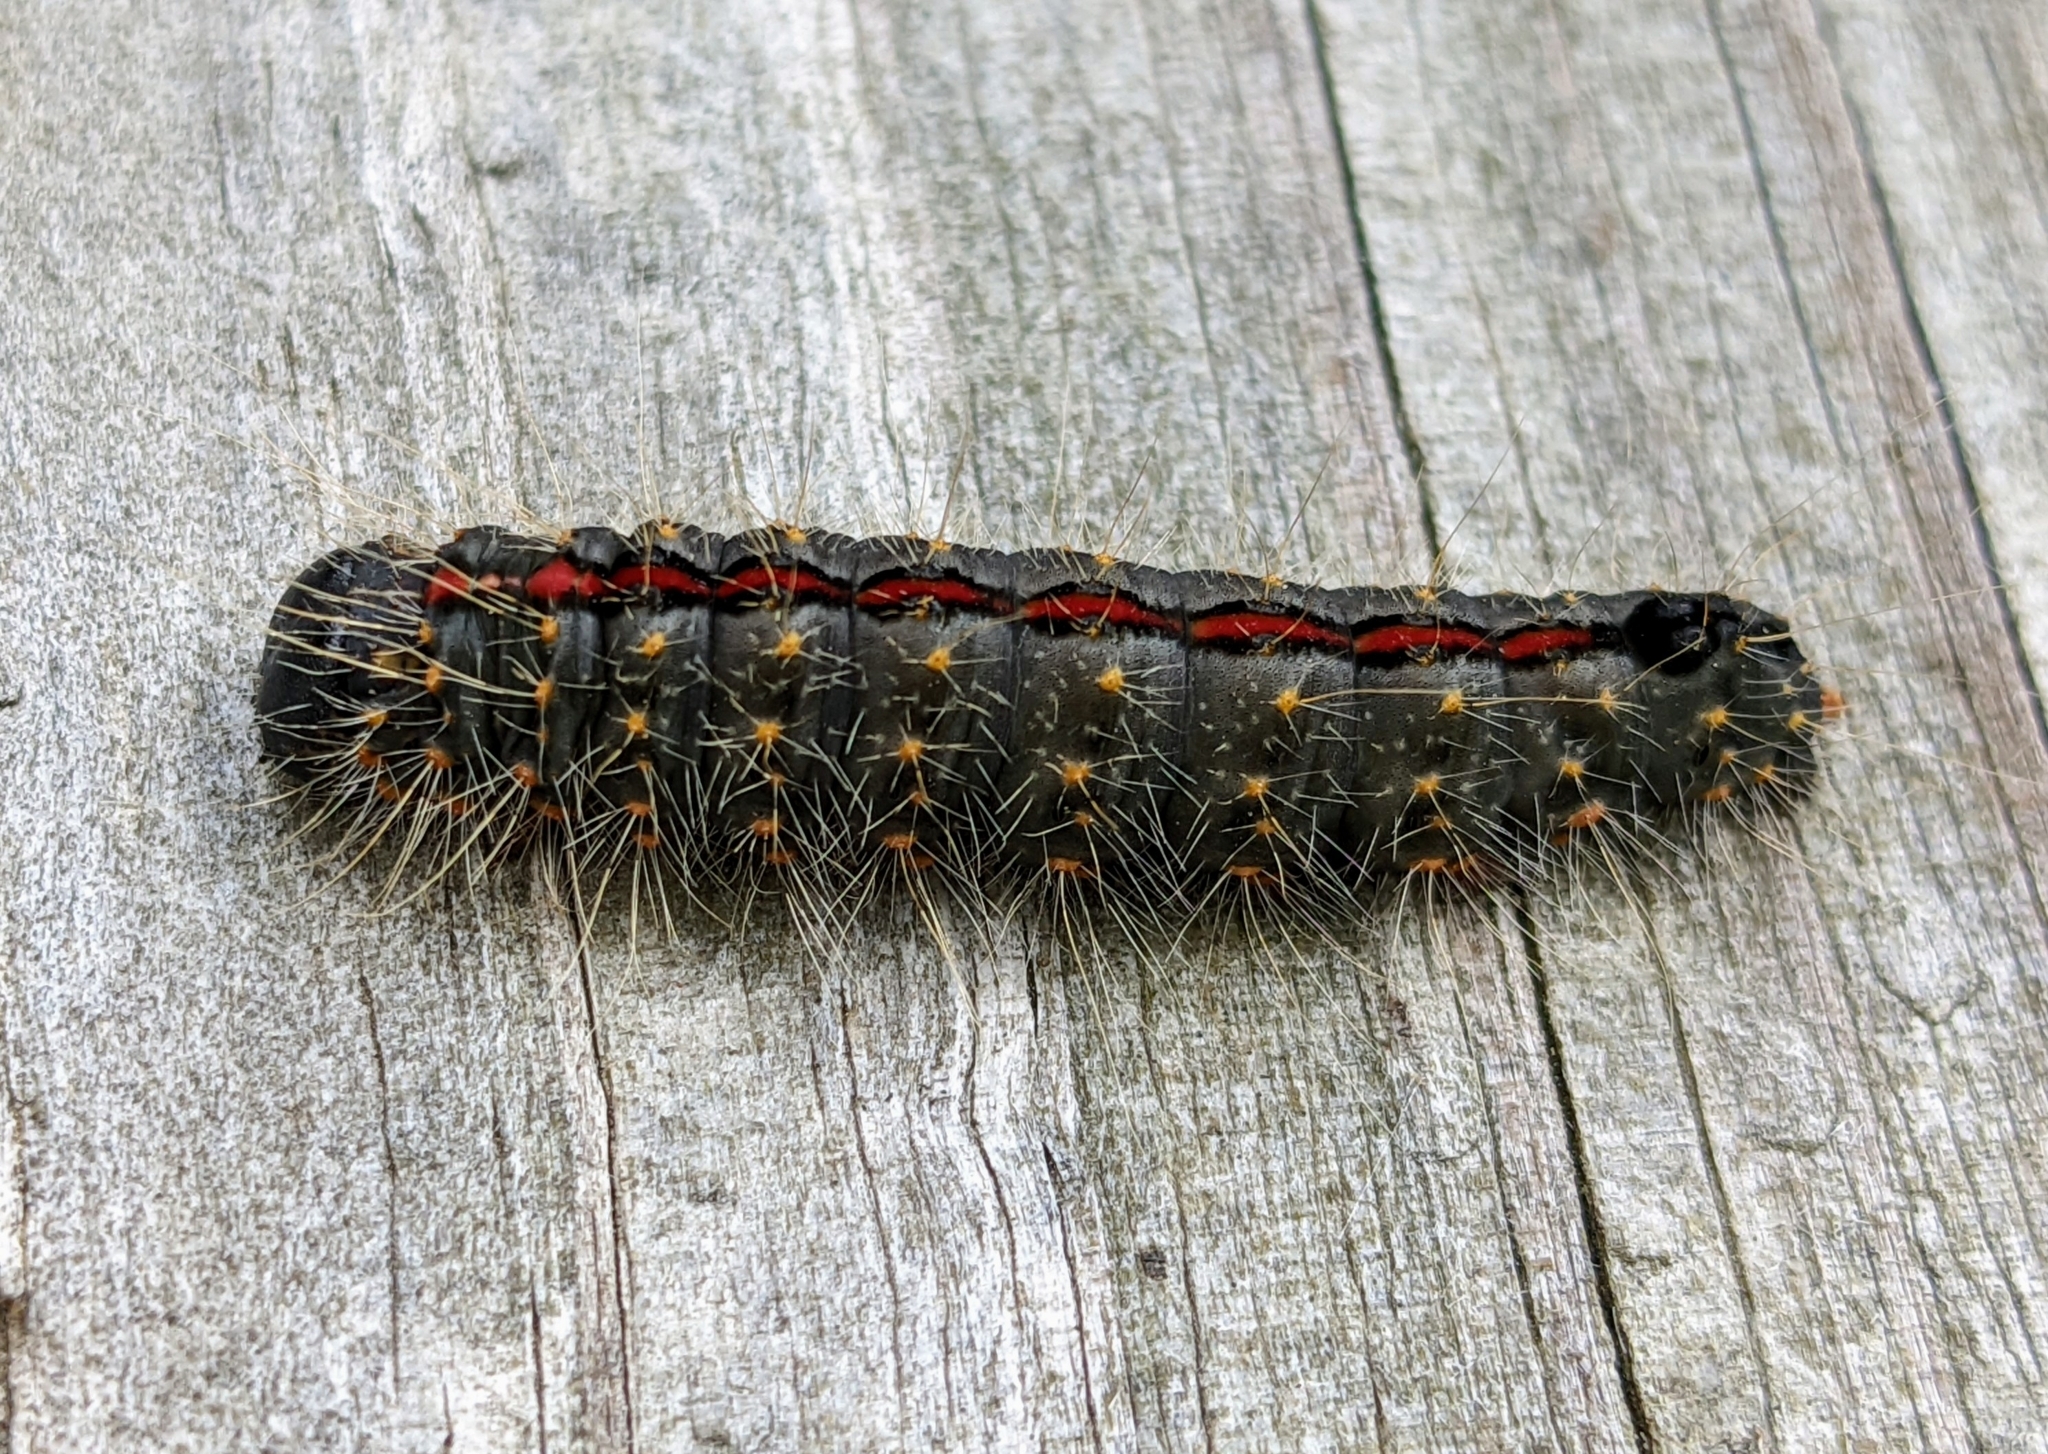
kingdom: Animalia
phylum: Arthropoda
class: Insecta
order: Lepidoptera
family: Noctuidae
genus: Acronicta
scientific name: Acronicta hasta
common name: Cherry dagger
